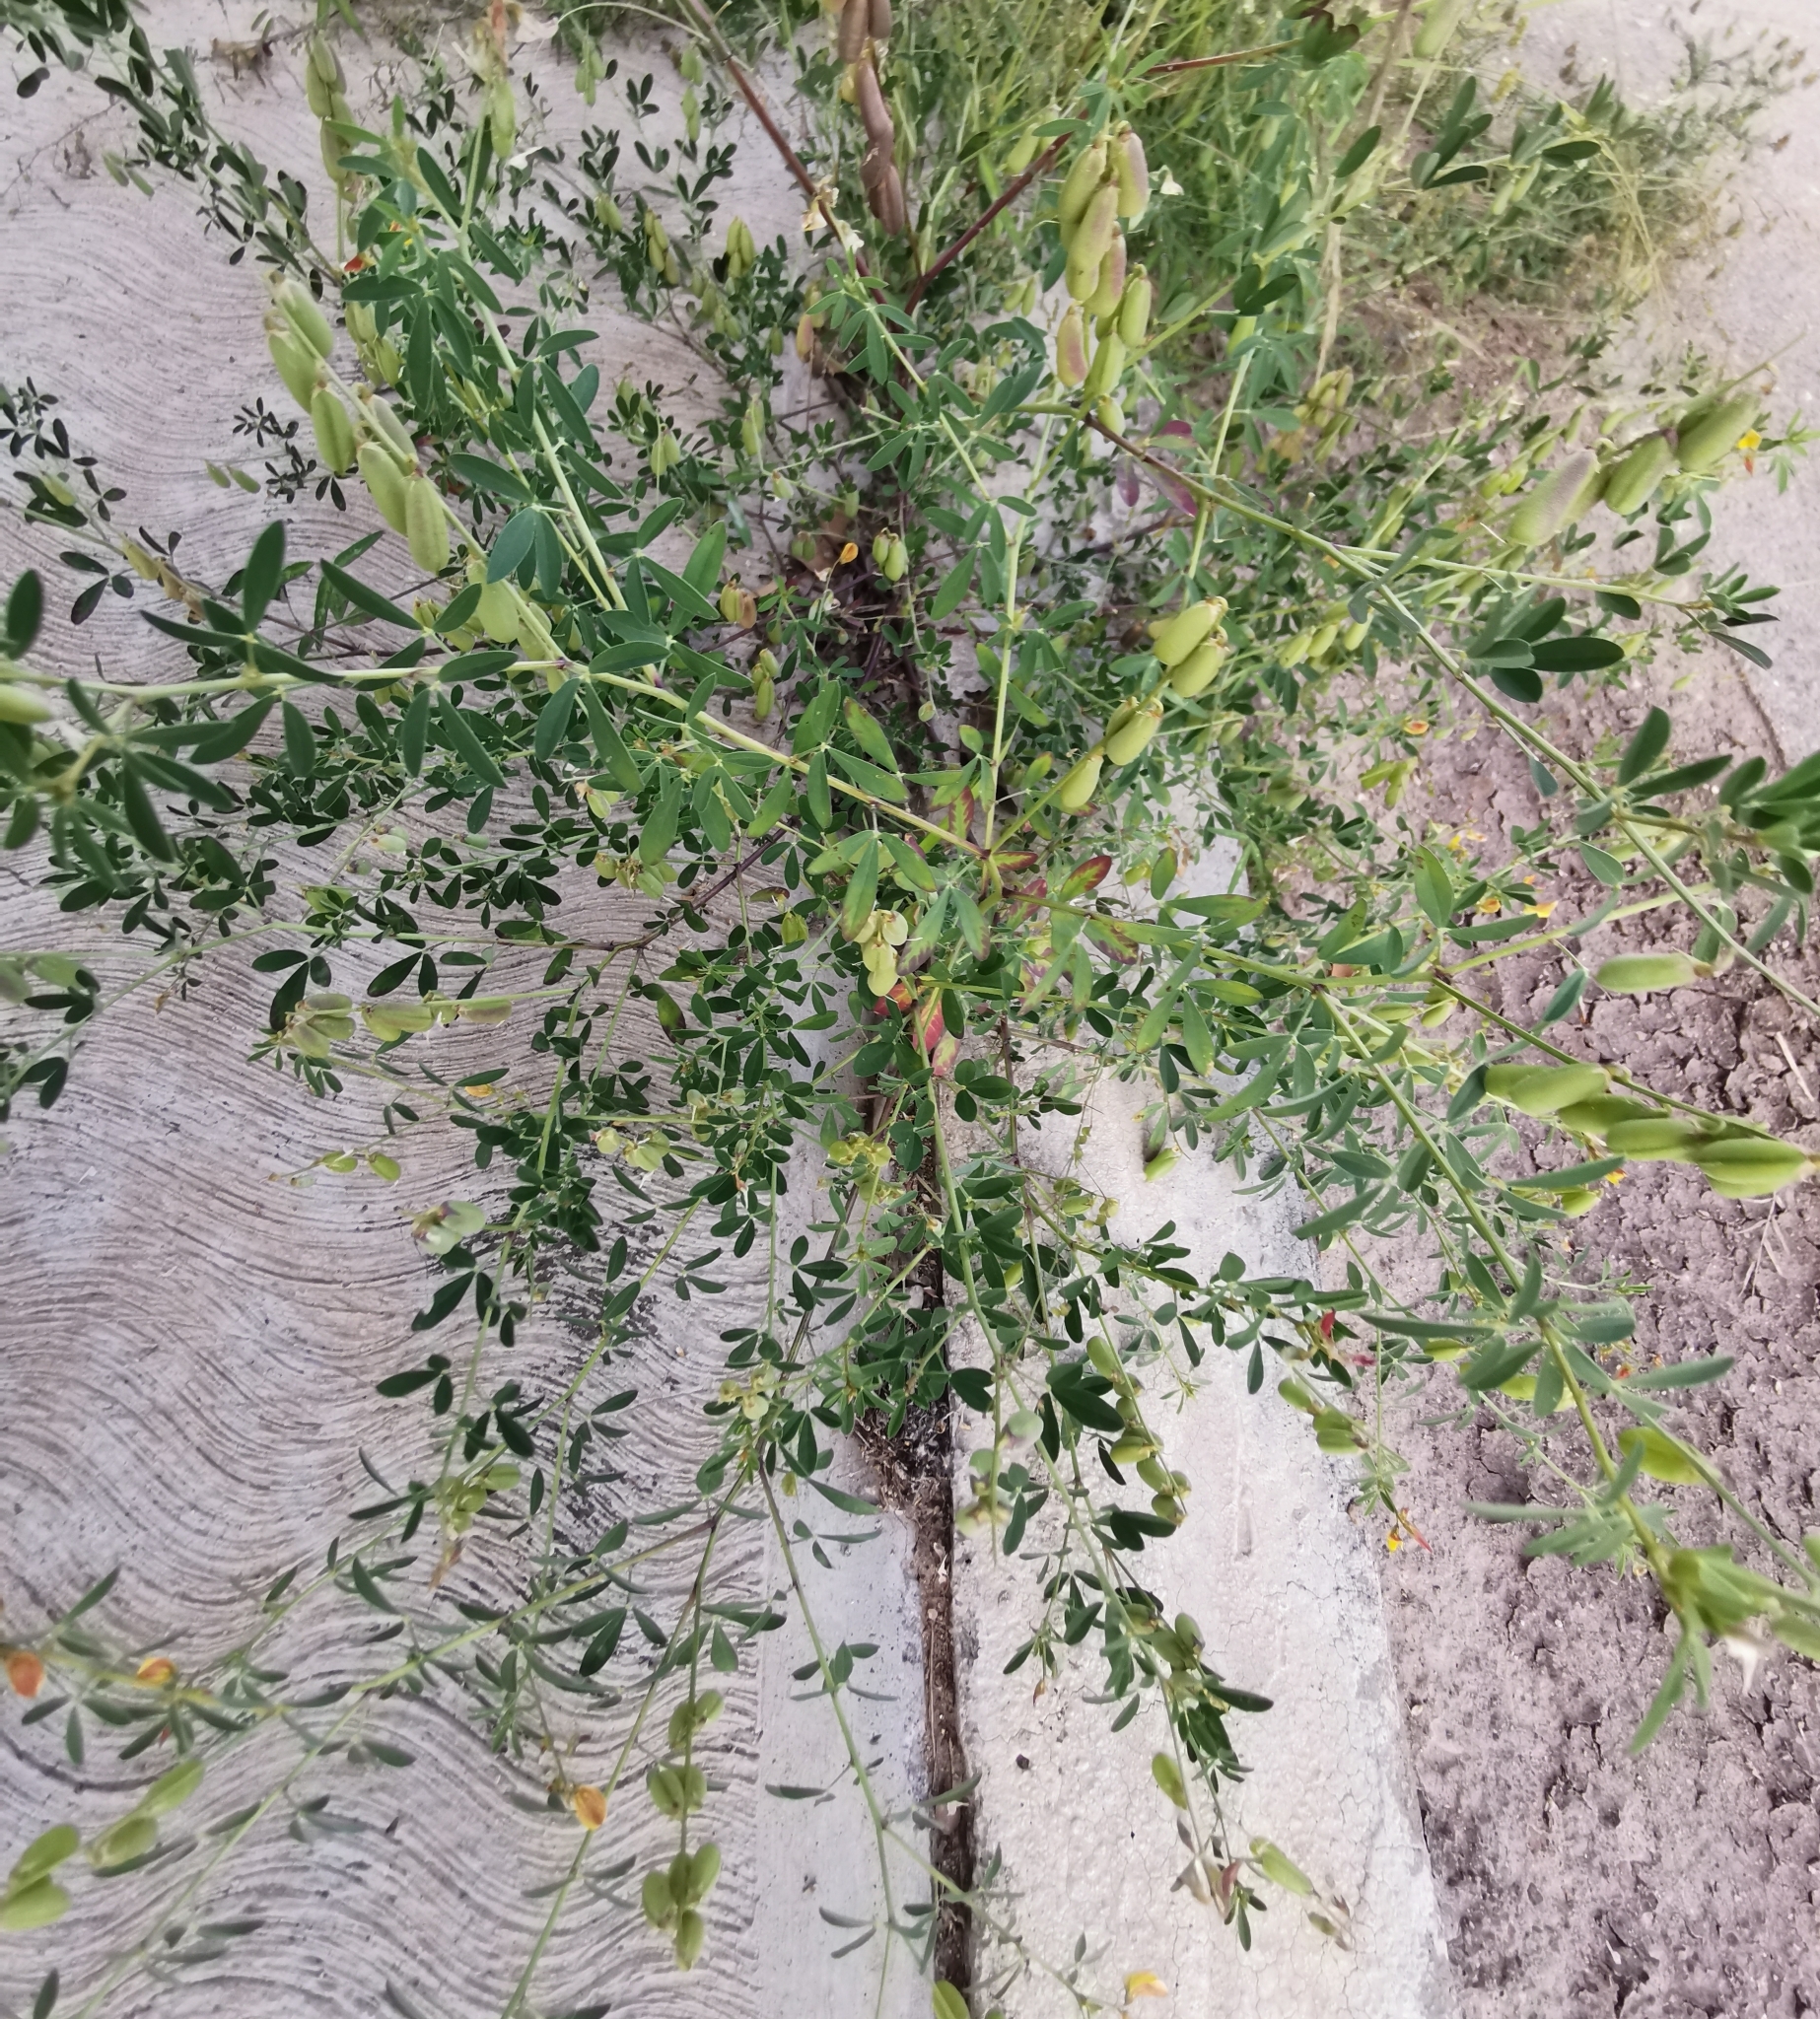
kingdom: Plantae
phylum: Tracheophyta
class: Magnoliopsida
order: Fabales
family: Fabaceae
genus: Crotalaria
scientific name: Crotalaria pumila
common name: Low rattlebox
